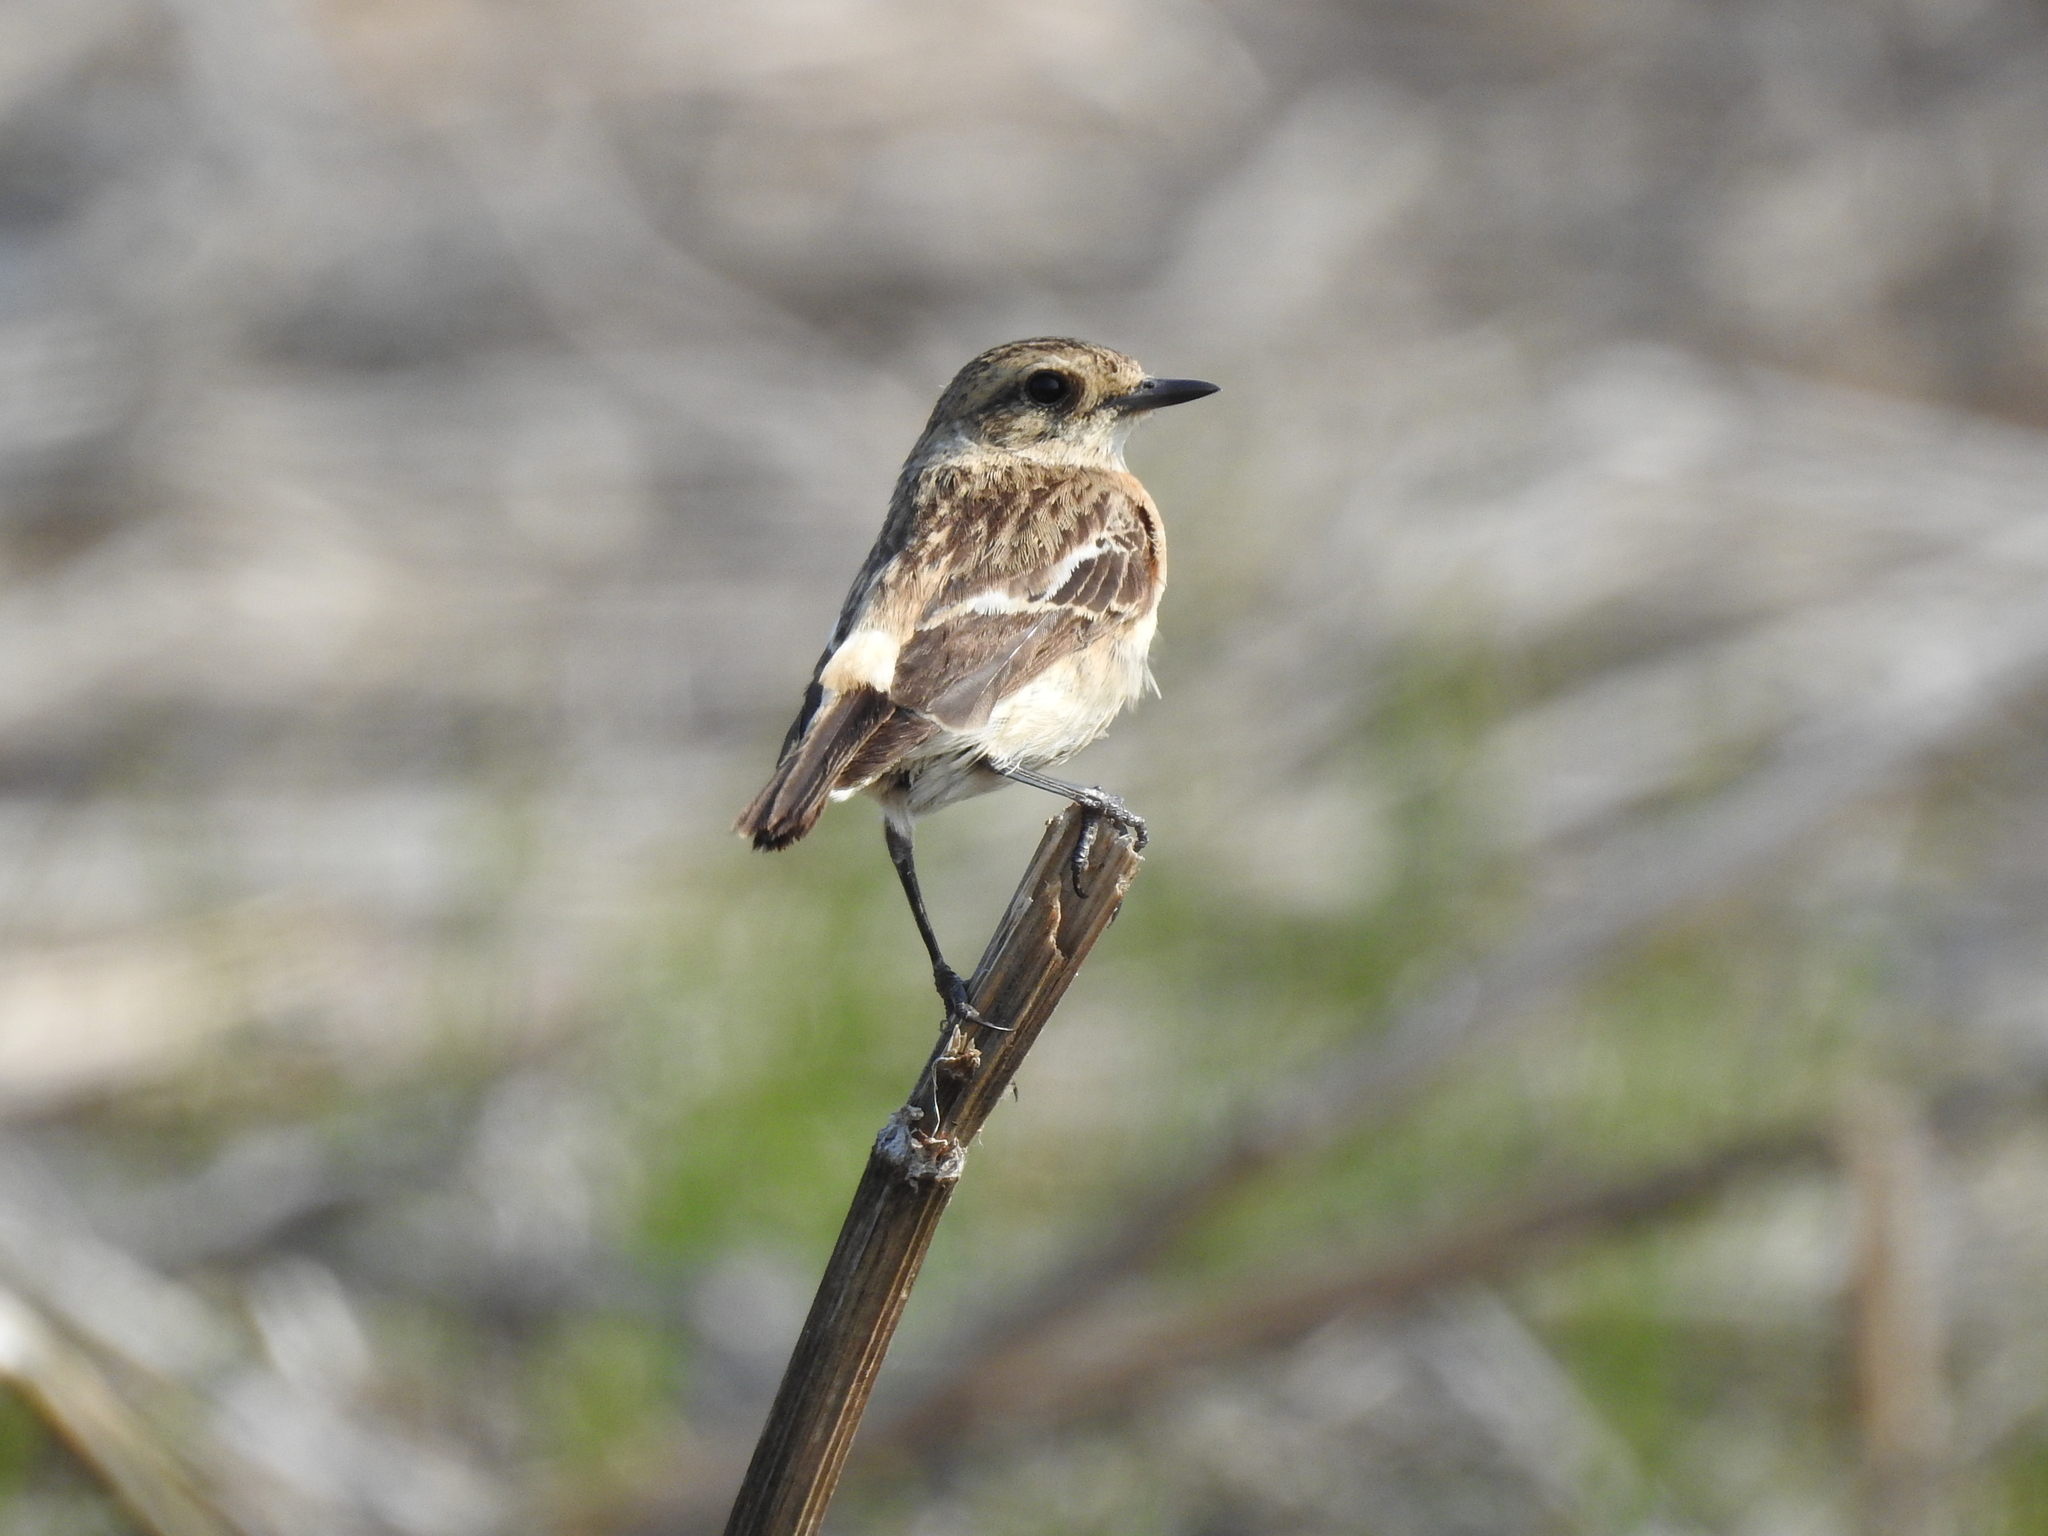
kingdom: Animalia
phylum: Chordata
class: Aves
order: Passeriformes
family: Muscicapidae
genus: Saxicola
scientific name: Saxicola maurus
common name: Siberian stonechat
